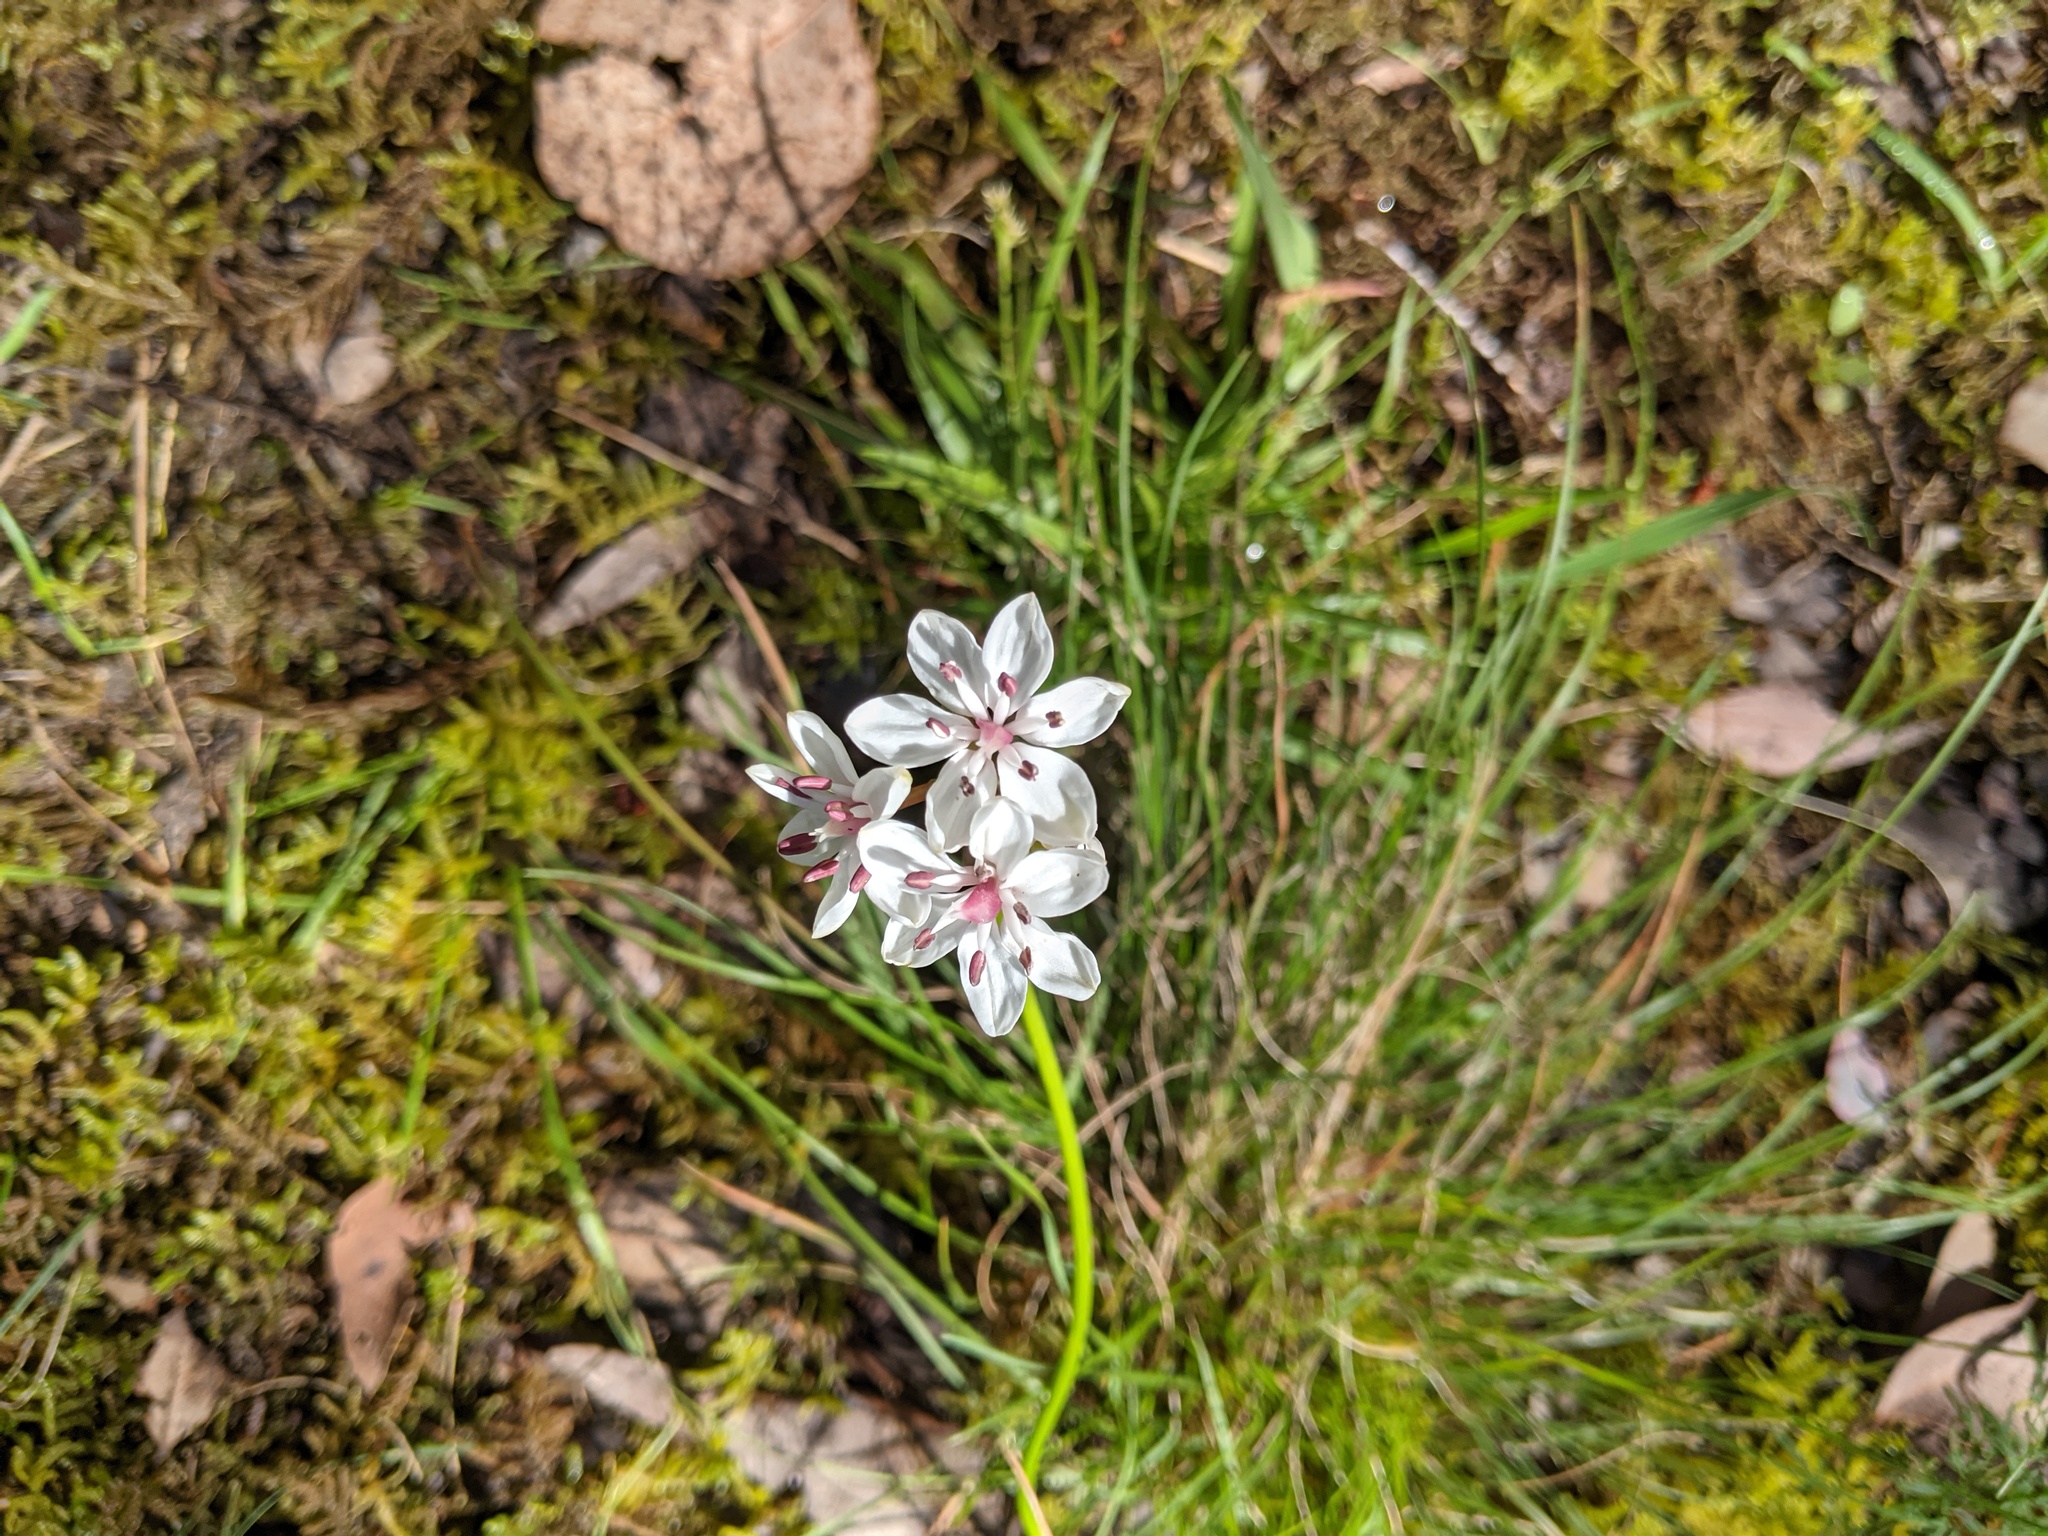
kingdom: Plantae
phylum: Tracheophyta
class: Liliopsida
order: Liliales
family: Colchicaceae
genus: Burchardia
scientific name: Burchardia umbellata
